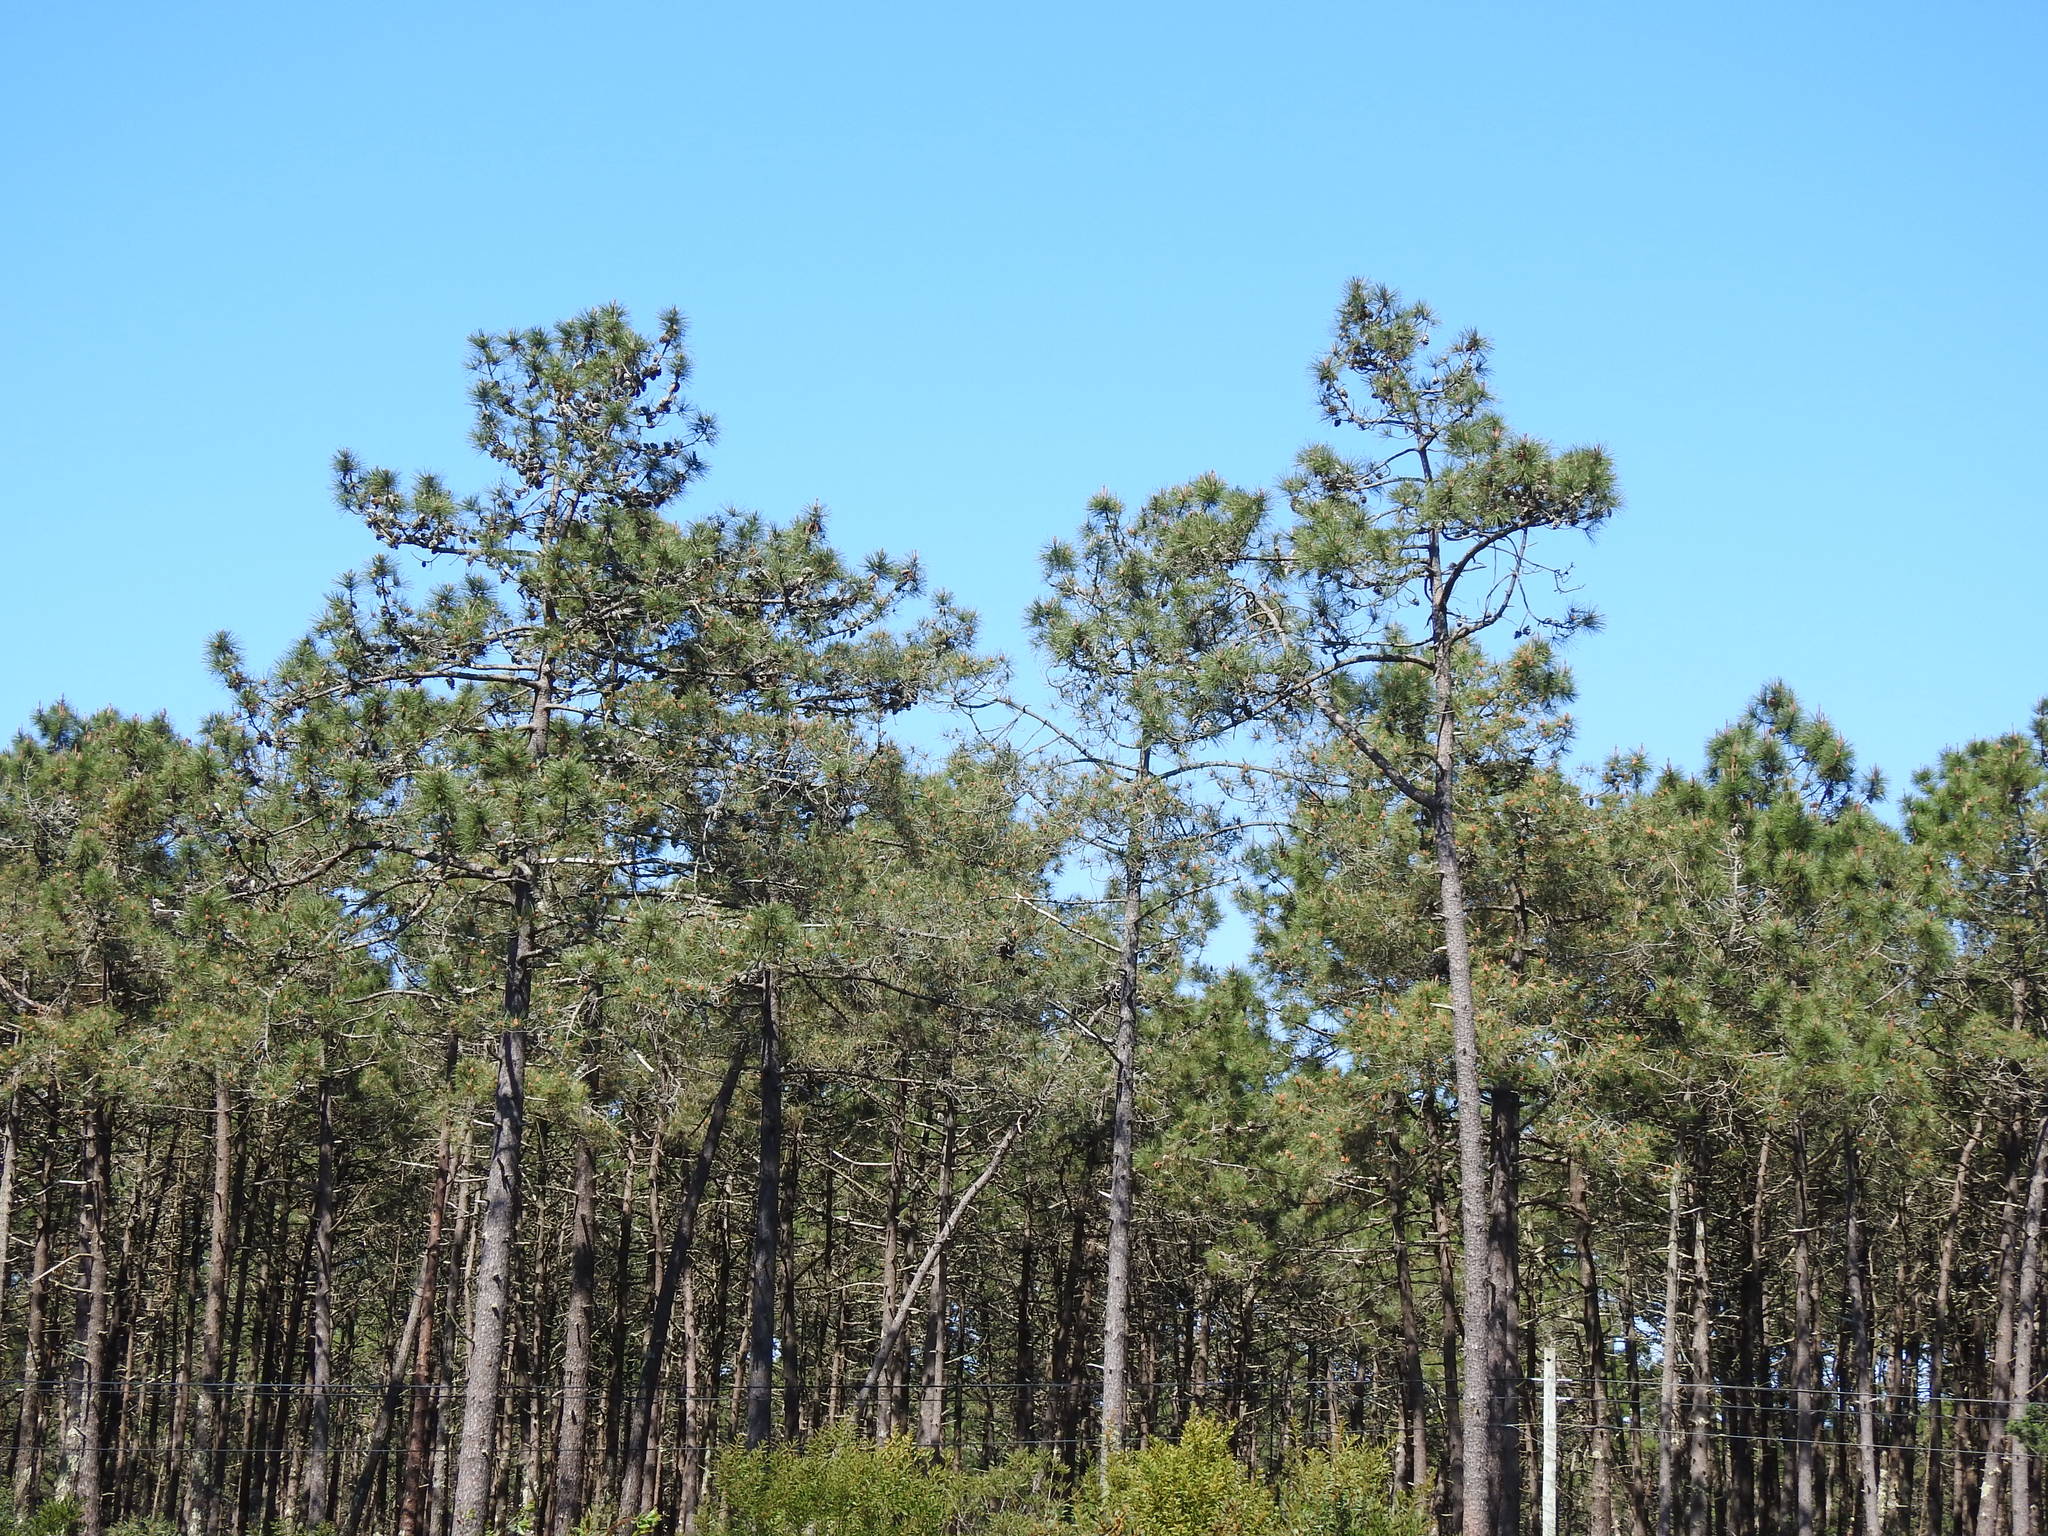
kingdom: Plantae
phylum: Tracheophyta
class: Pinopsida
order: Pinales
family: Pinaceae
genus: Pinus
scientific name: Pinus pinaster
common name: Maritime pine
